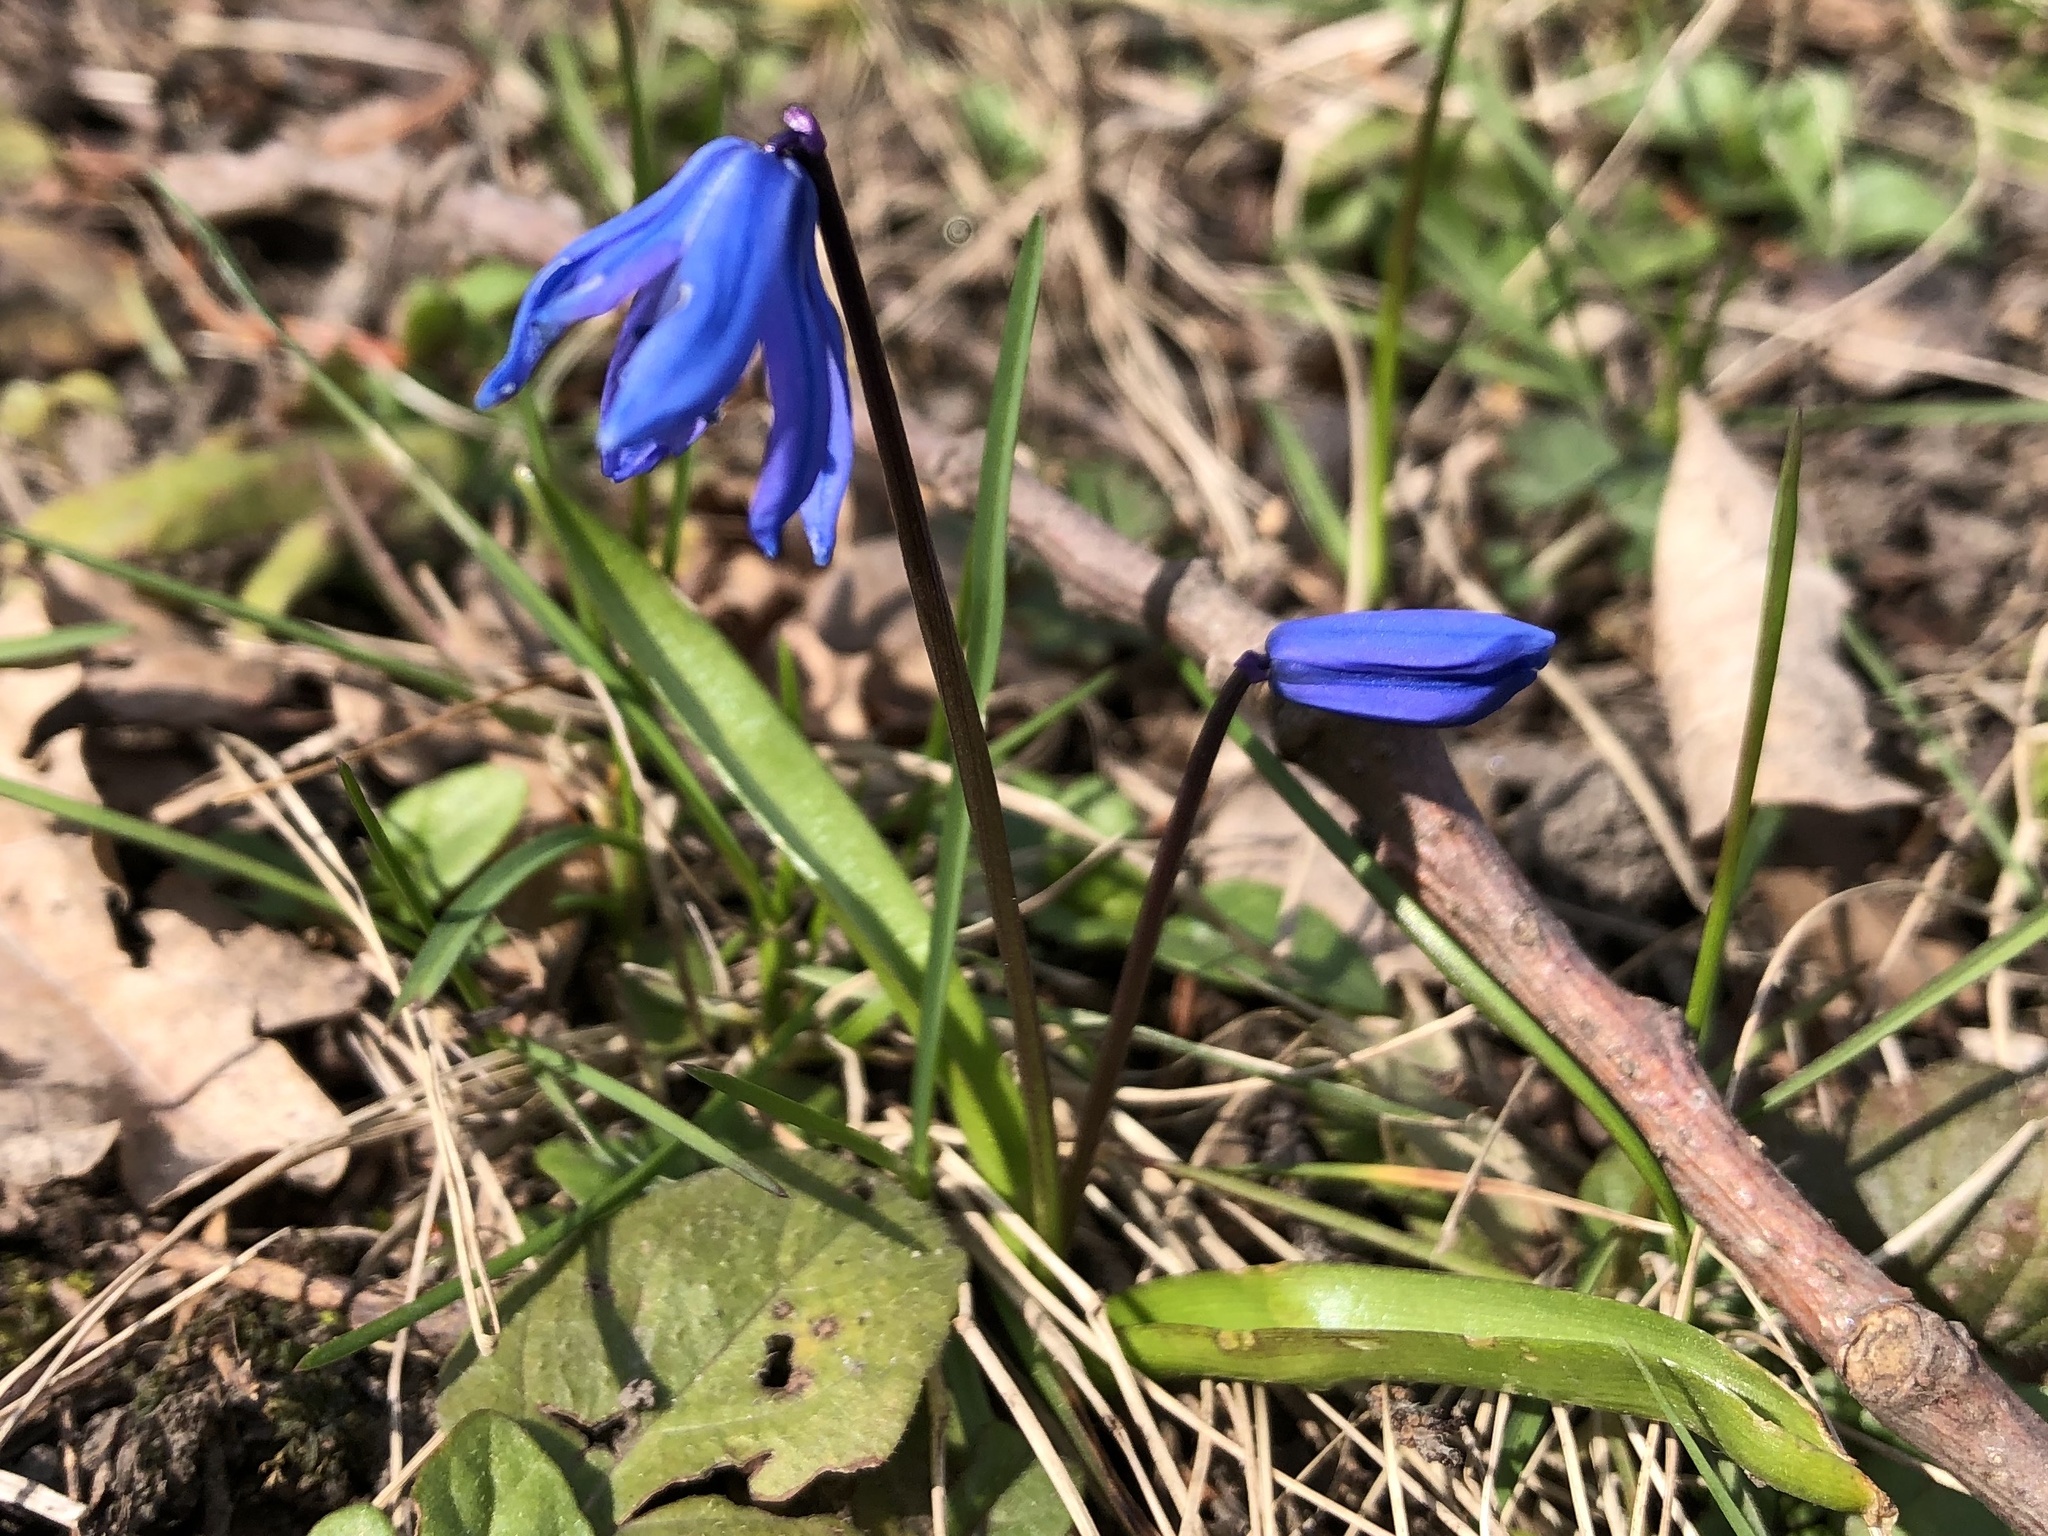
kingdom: Plantae
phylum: Tracheophyta
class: Liliopsida
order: Asparagales
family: Asparagaceae
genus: Scilla
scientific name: Scilla siberica
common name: Siberian squill
